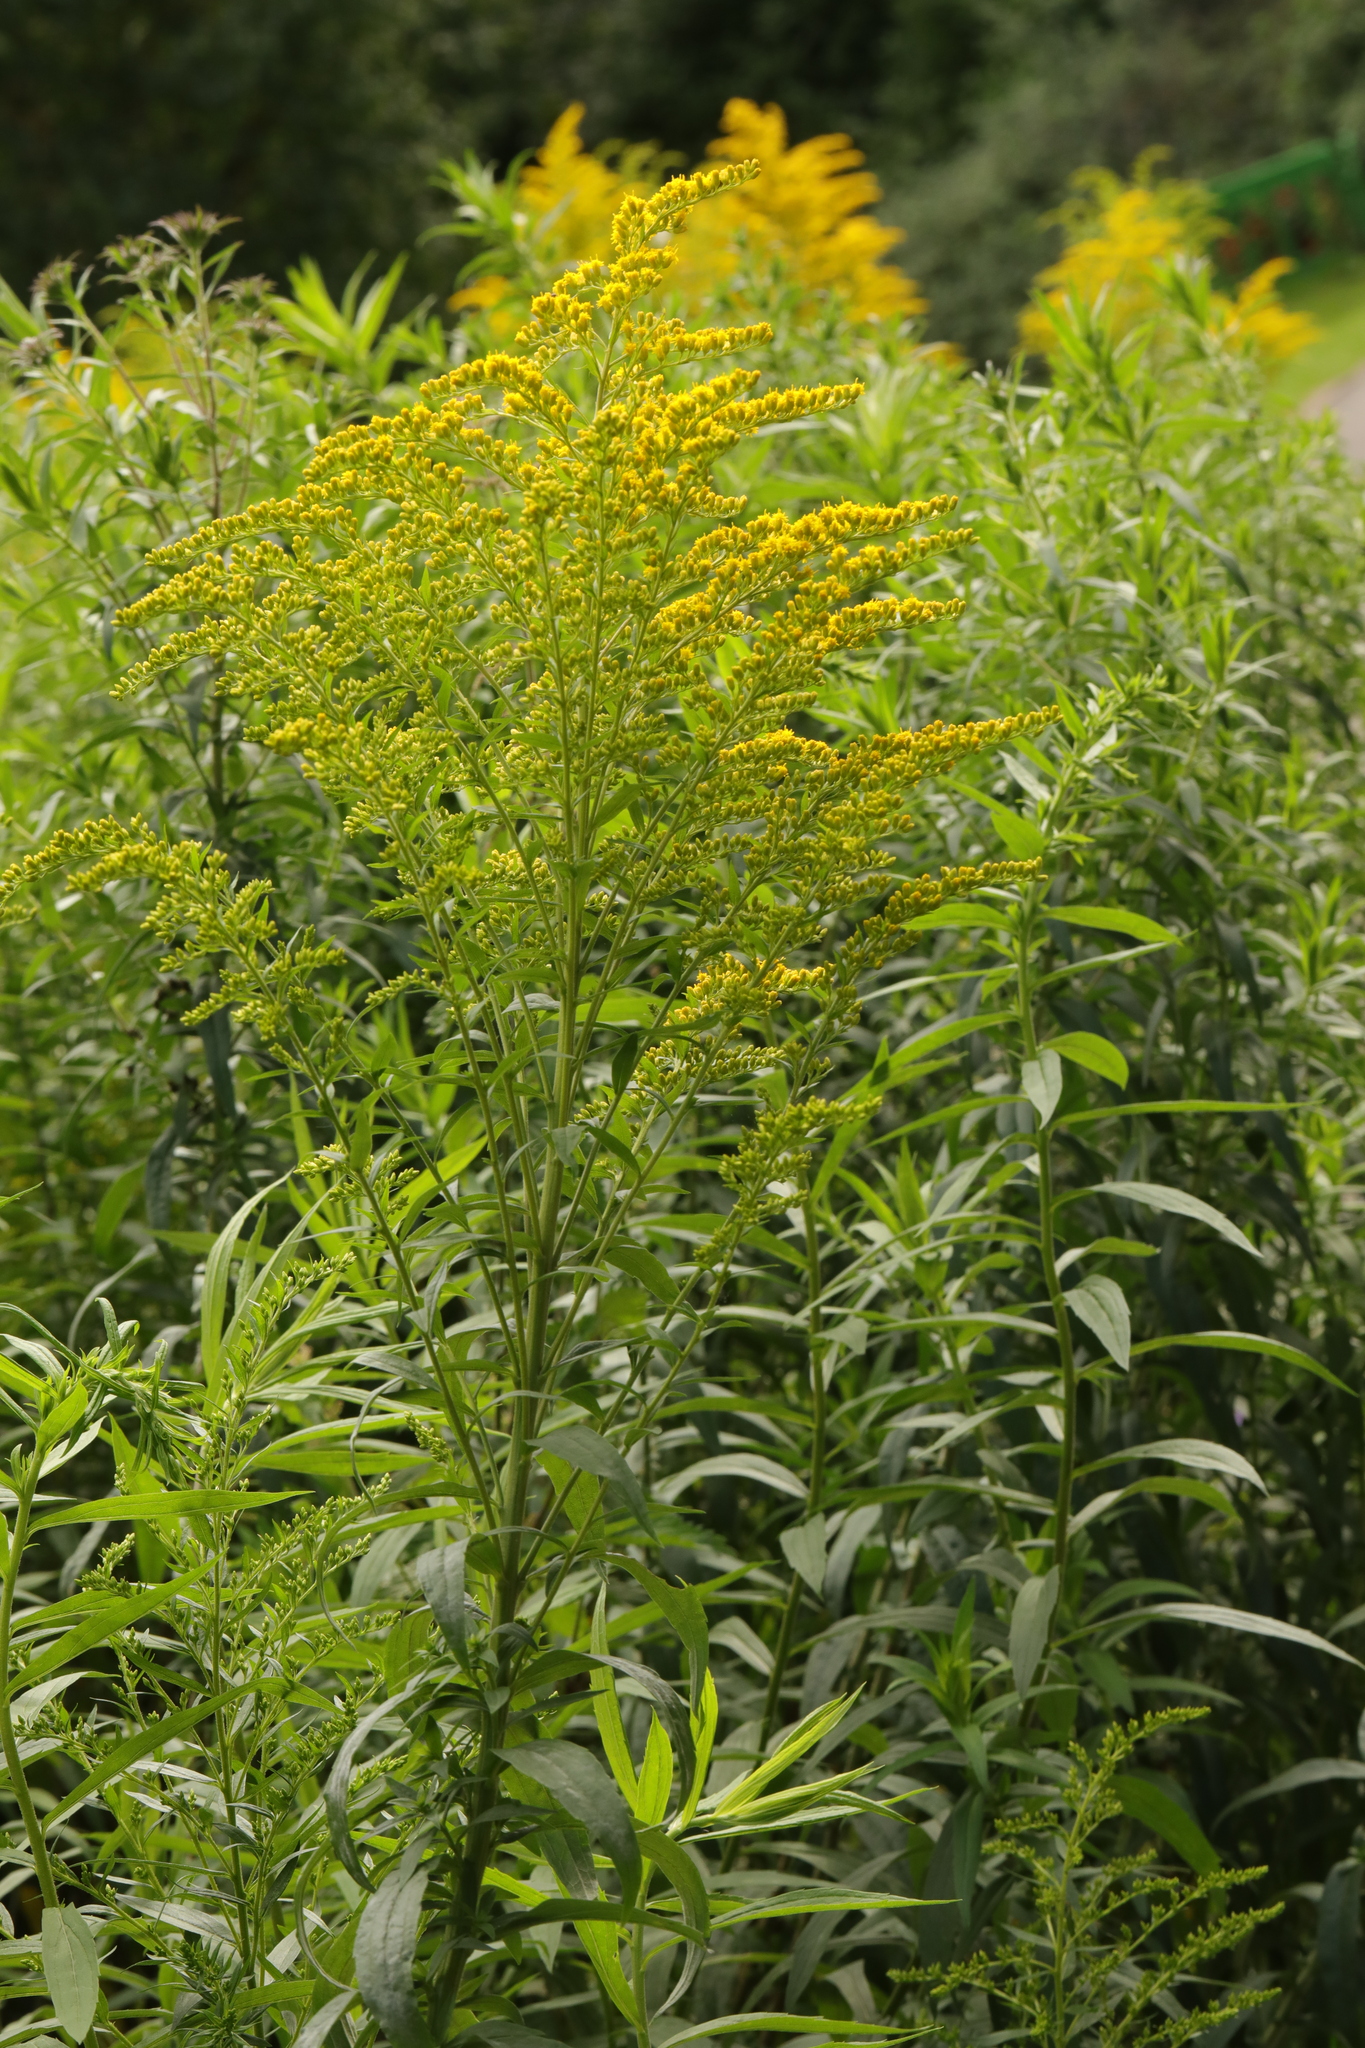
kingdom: Plantae
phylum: Tracheophyta
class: Magnoliopsida
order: Asterales
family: Asteraceae
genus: Solidago
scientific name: Solidago canadensis
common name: Canada goldenrod
